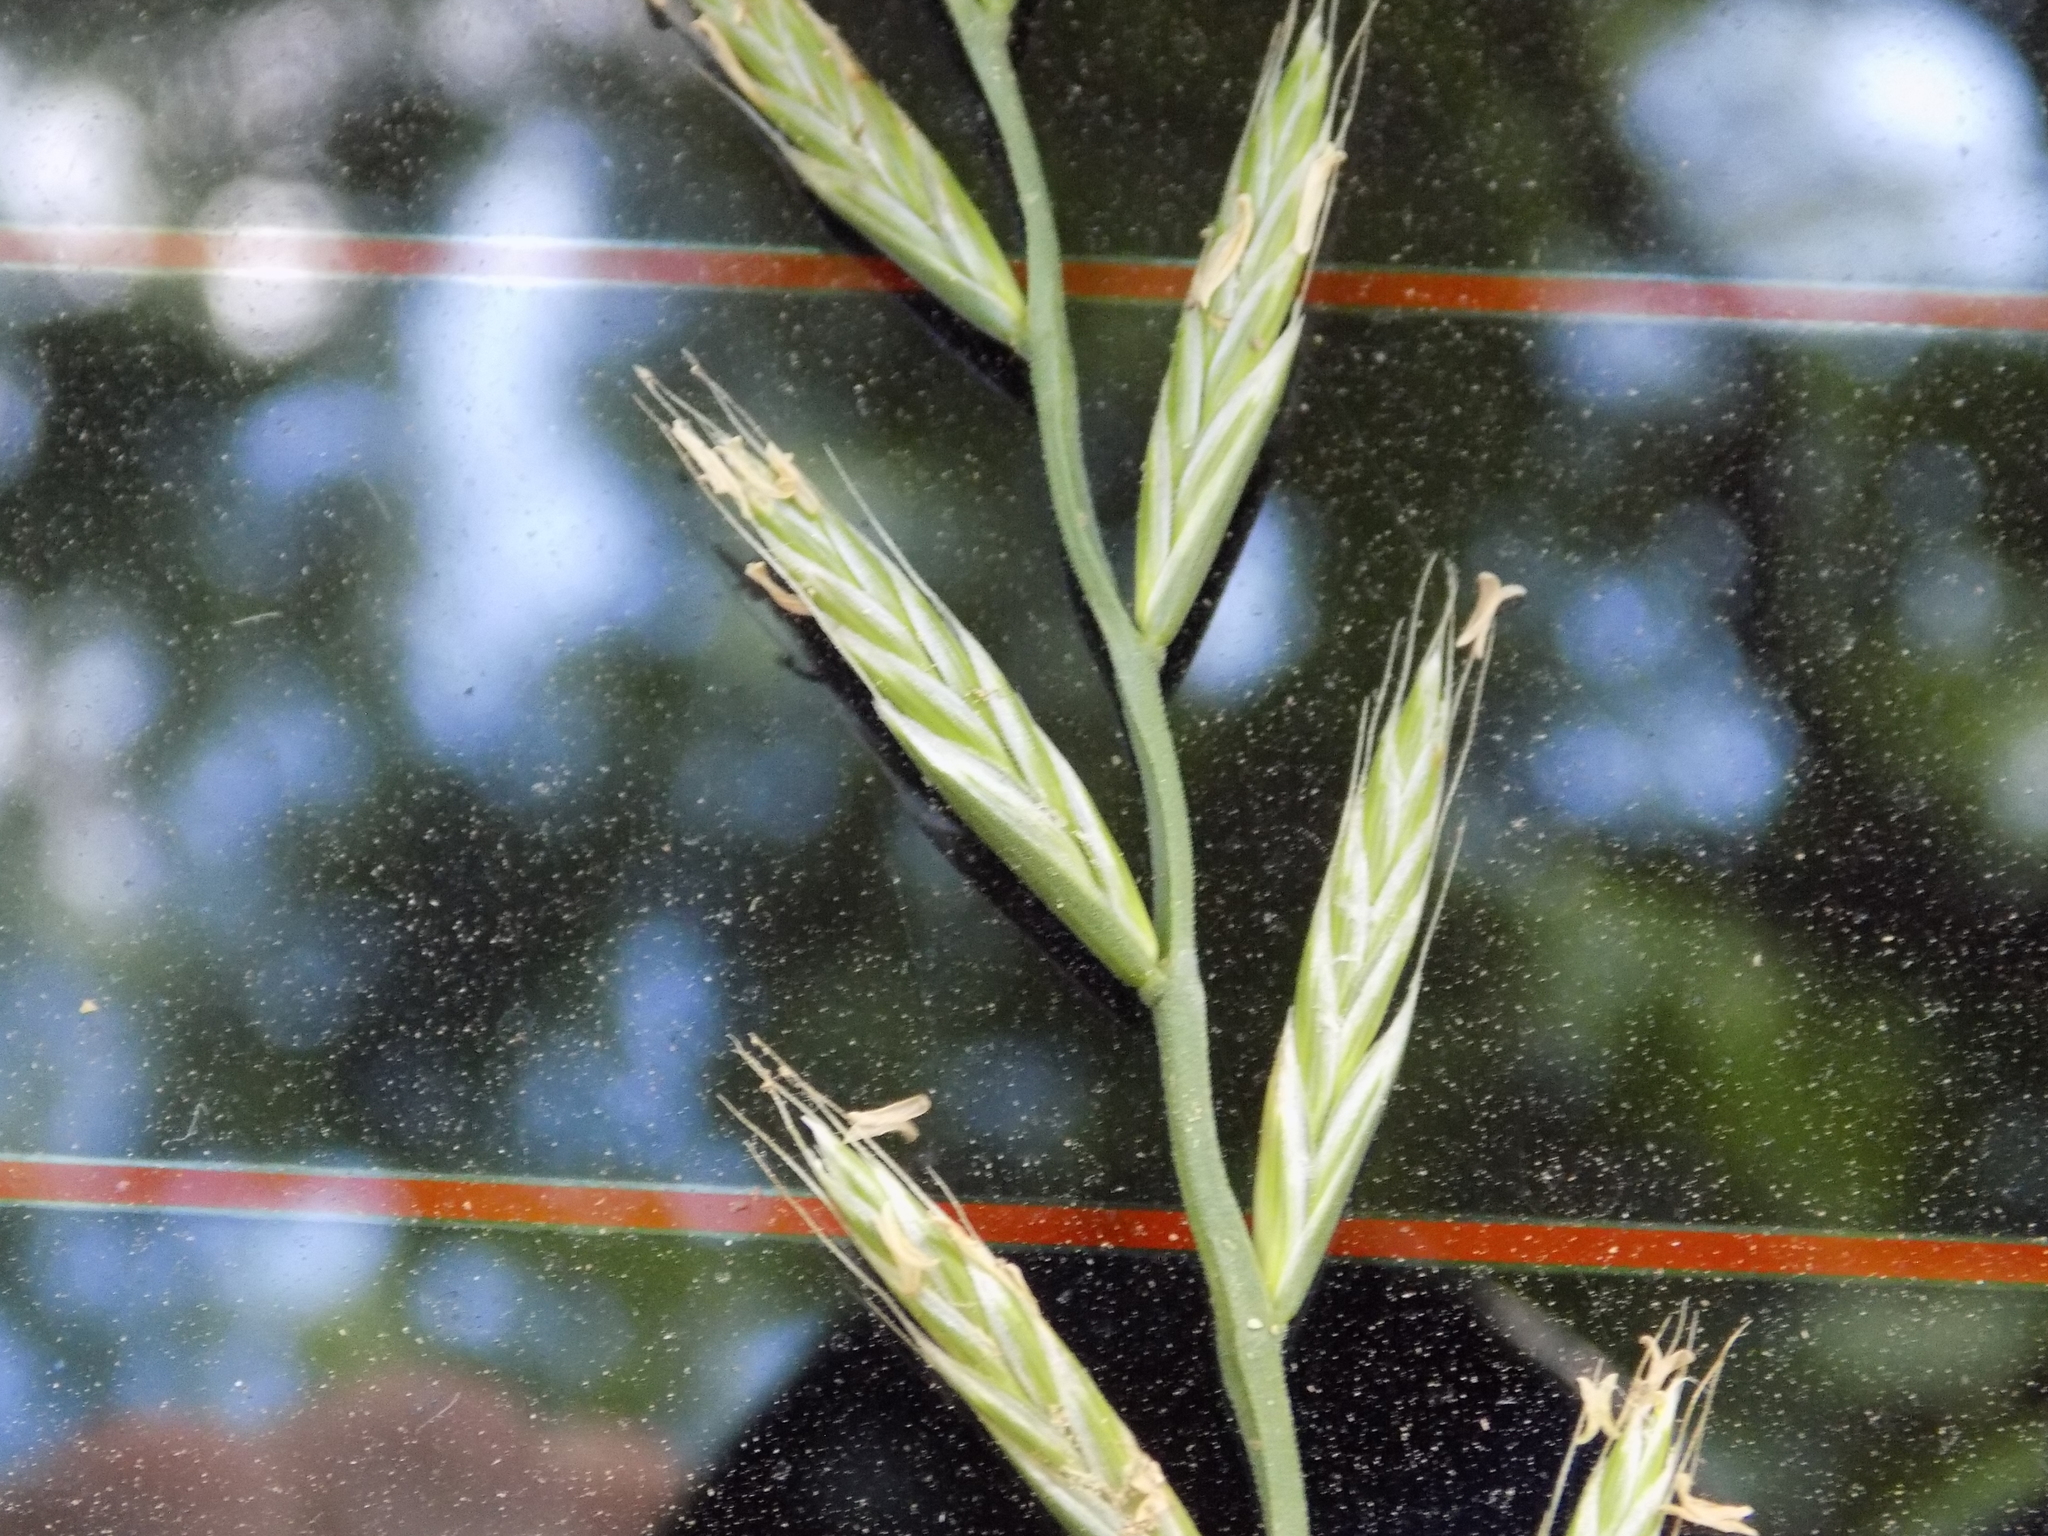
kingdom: Plantae
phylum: Tracheophyta
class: Liliopsida
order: Poales
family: Poaceae
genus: Lolium
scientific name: Lolium multiflorum
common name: Annual ryegrass
